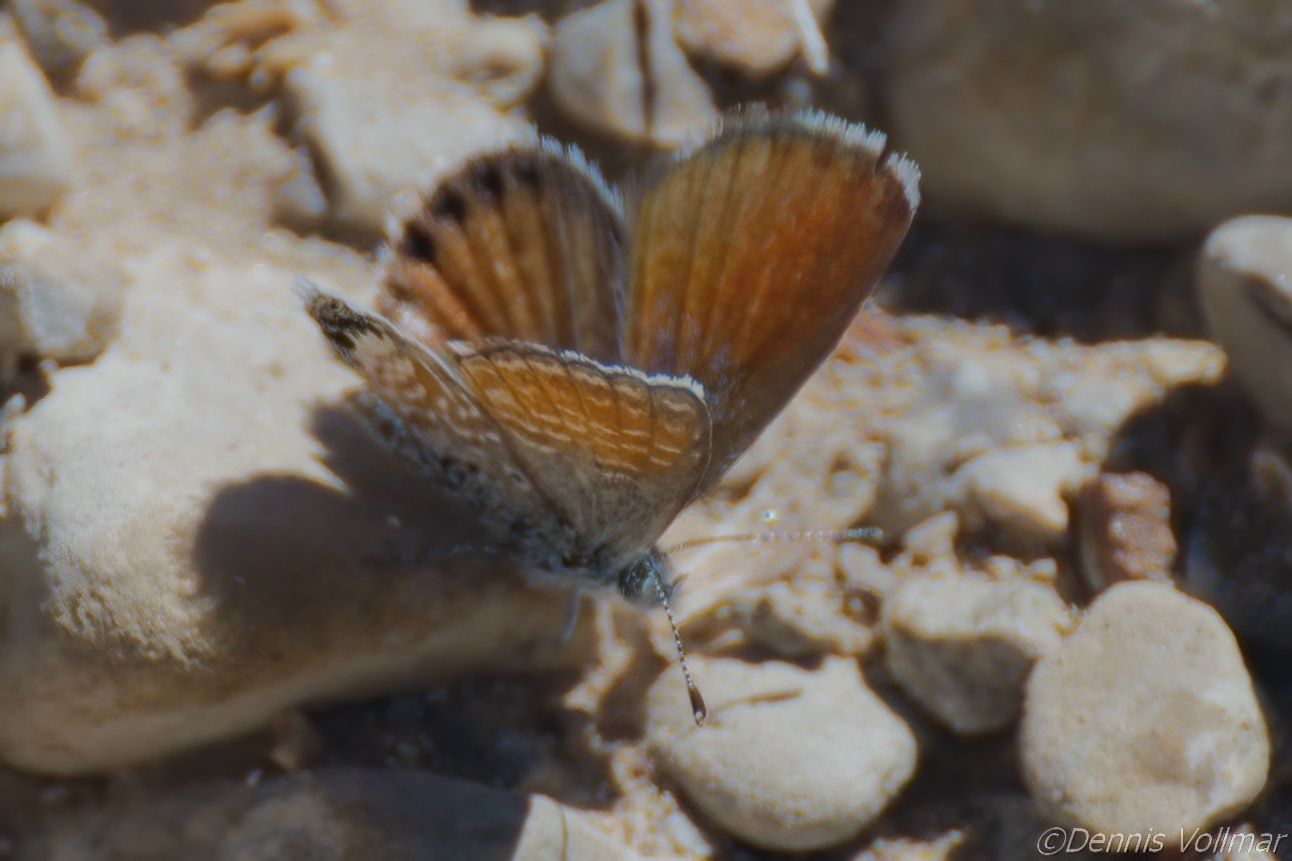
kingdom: Animalia
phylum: Arthropoda
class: Insecta
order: Lepidoptera
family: Lycaenidae
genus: Brephidium
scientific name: Brephidium exilis
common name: Pygmy blue
